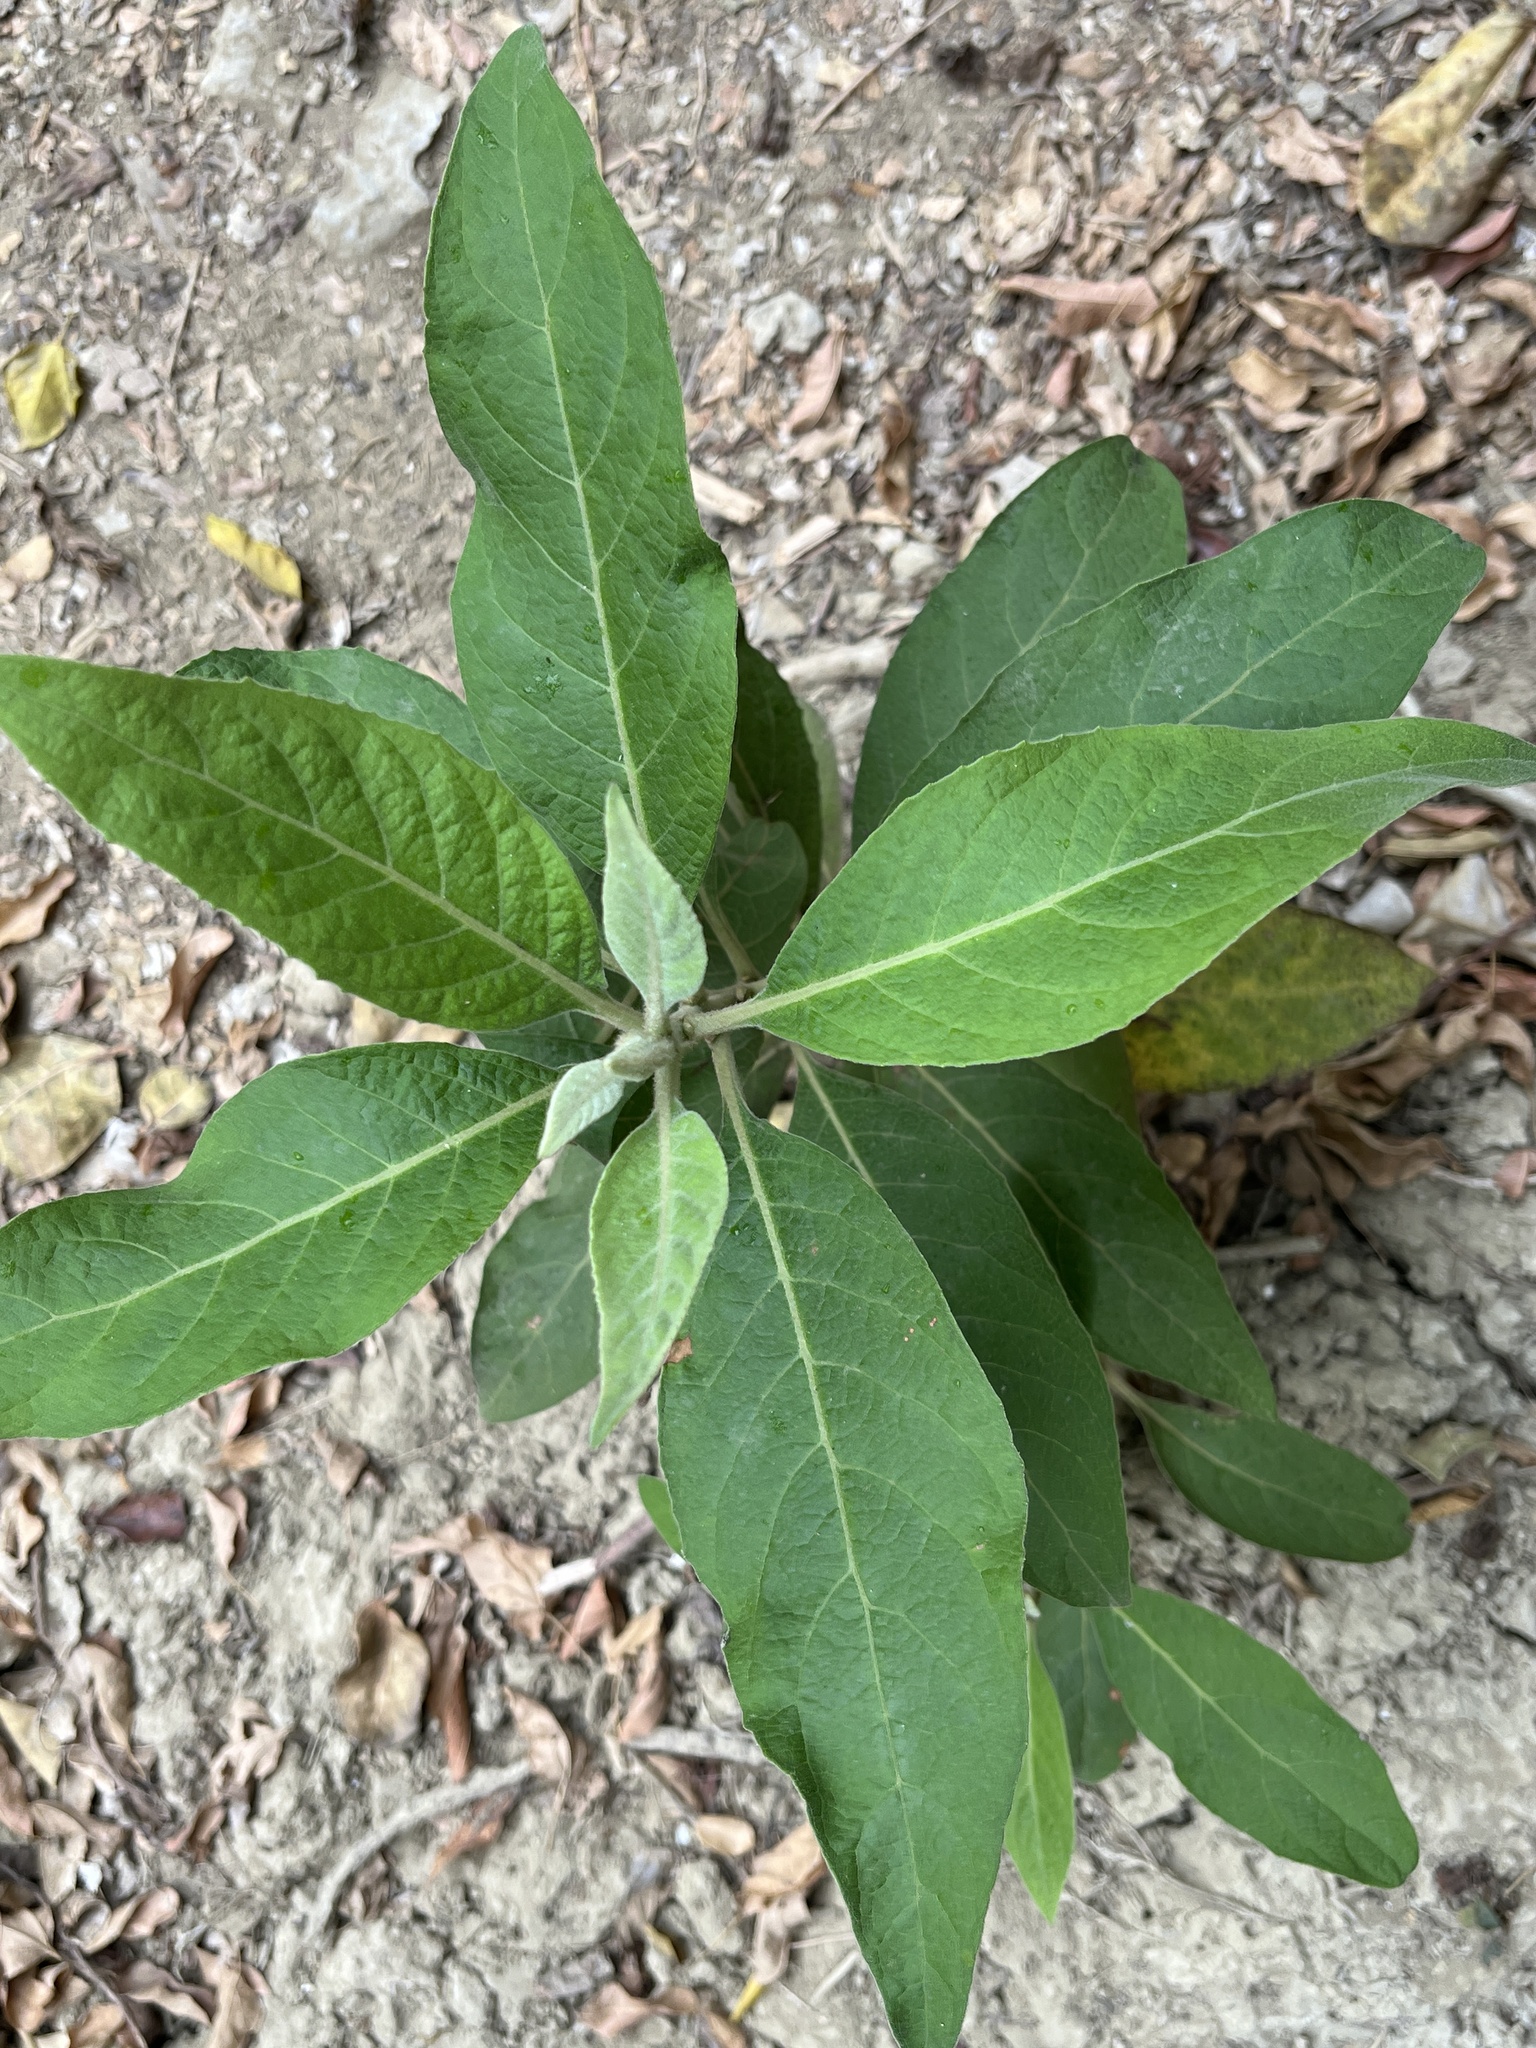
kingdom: Plantae
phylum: Tracheophyta
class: Magnoliopsida
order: Asterales
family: Asteraceae
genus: Pluchea
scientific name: Pluchea carolinensis
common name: Marsh fleabane
